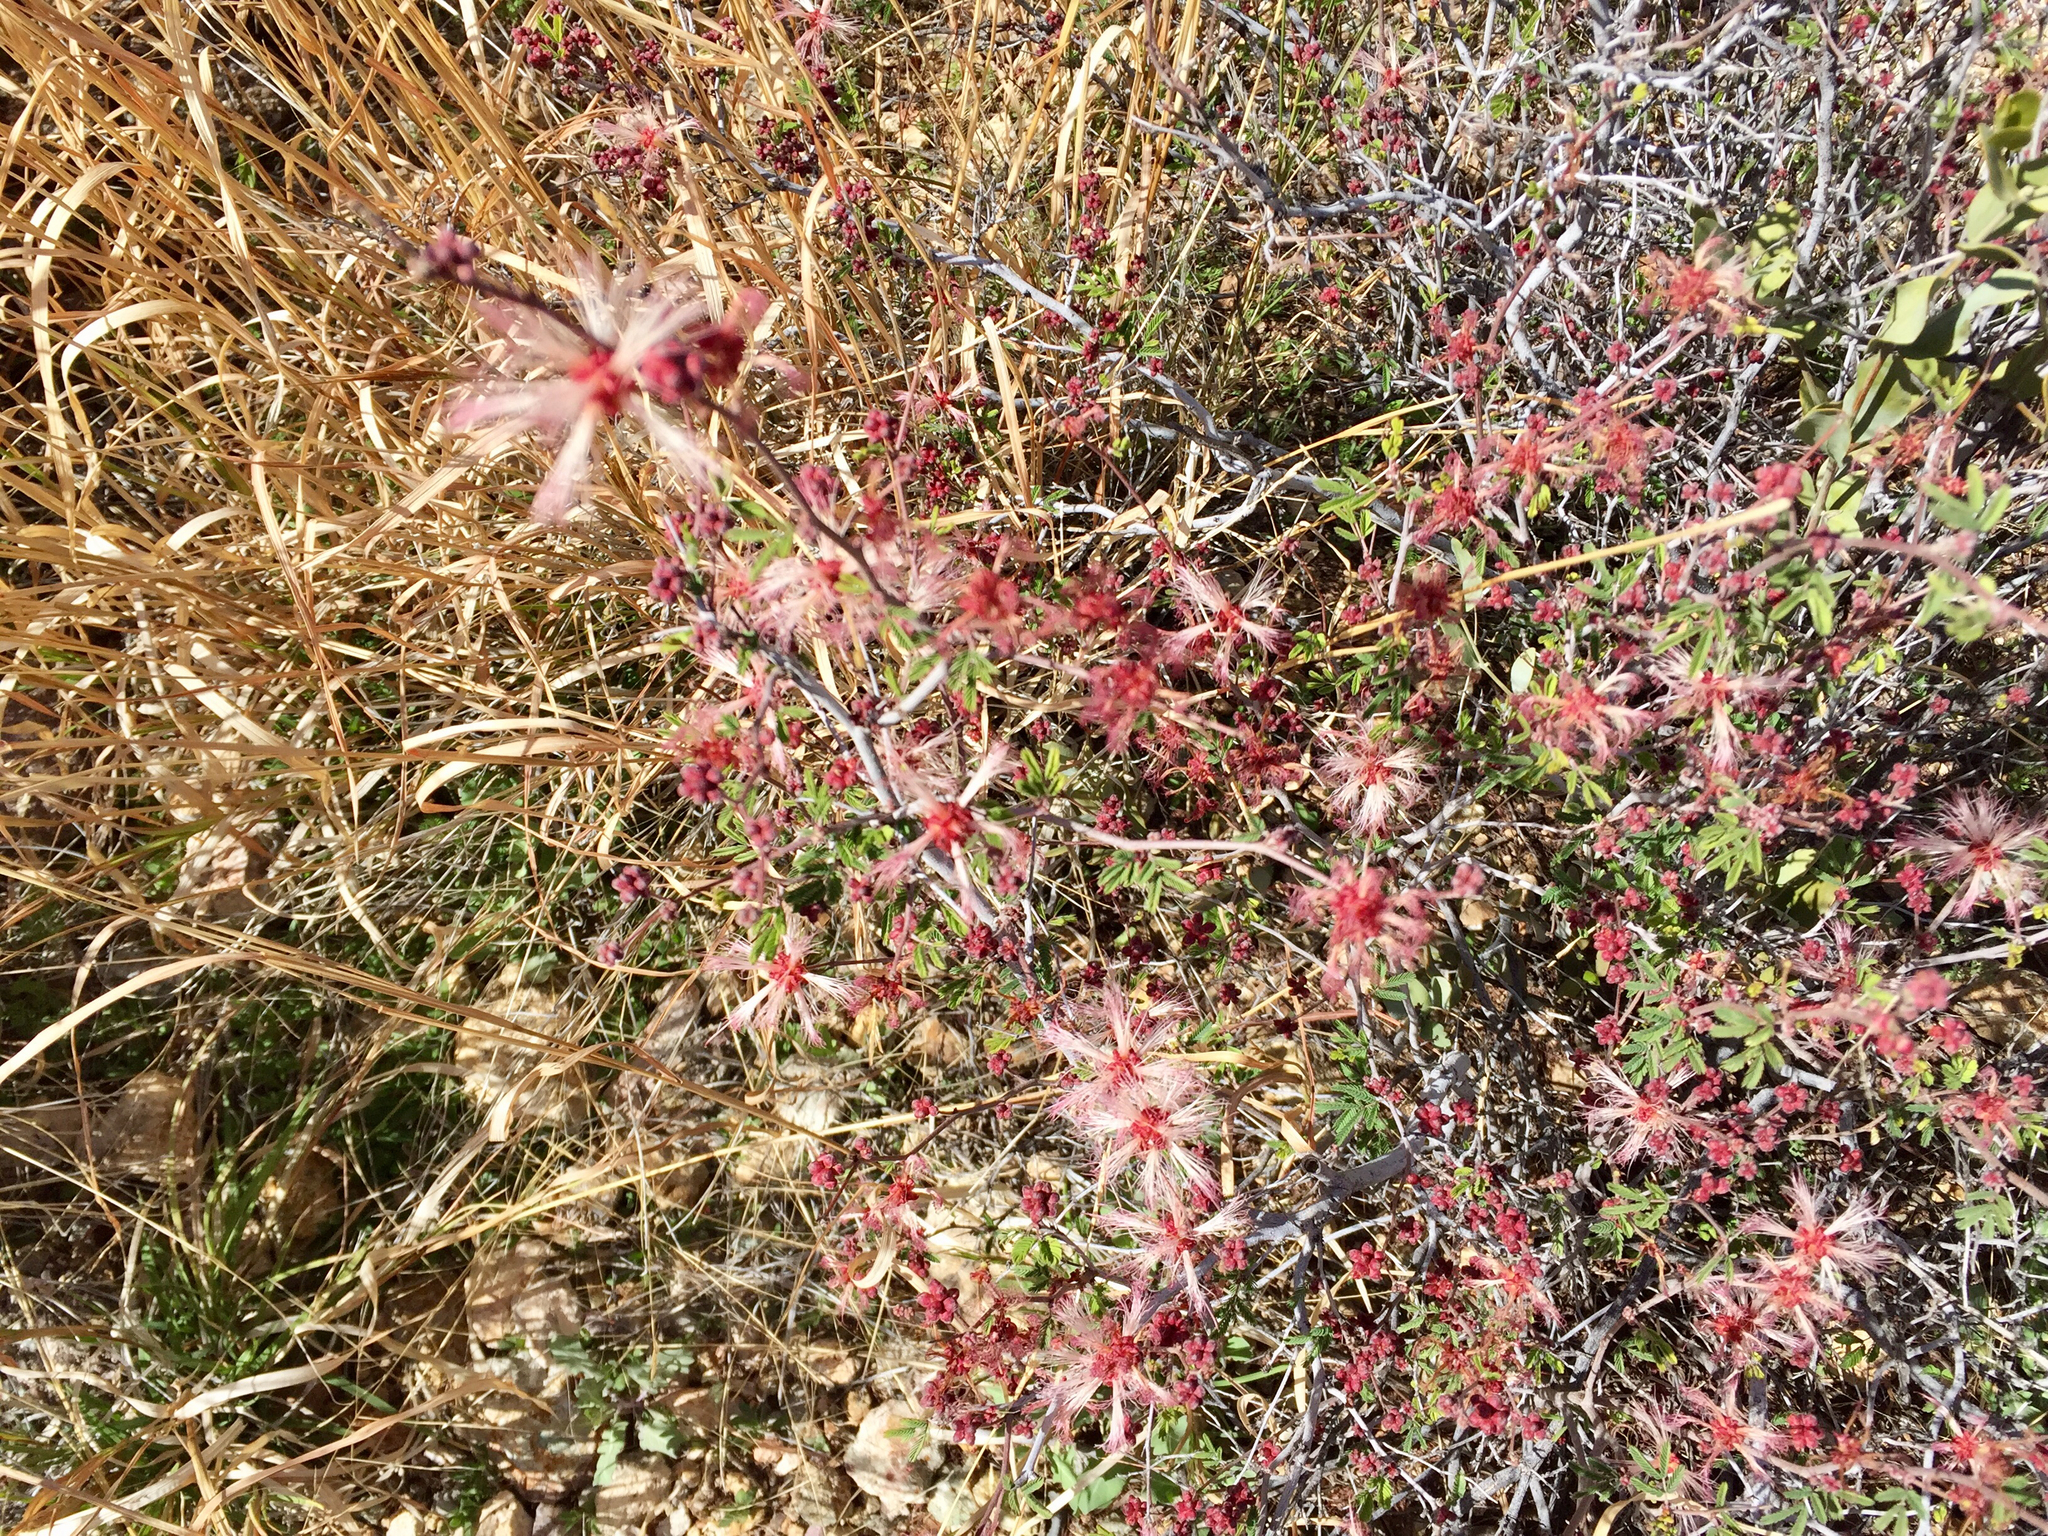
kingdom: Plantae
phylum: Tracheophyta
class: Magnoliopsida
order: Fabales
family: Fabaceae
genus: Calliandra
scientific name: Calliandra eriophylla
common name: Fairy-duster
